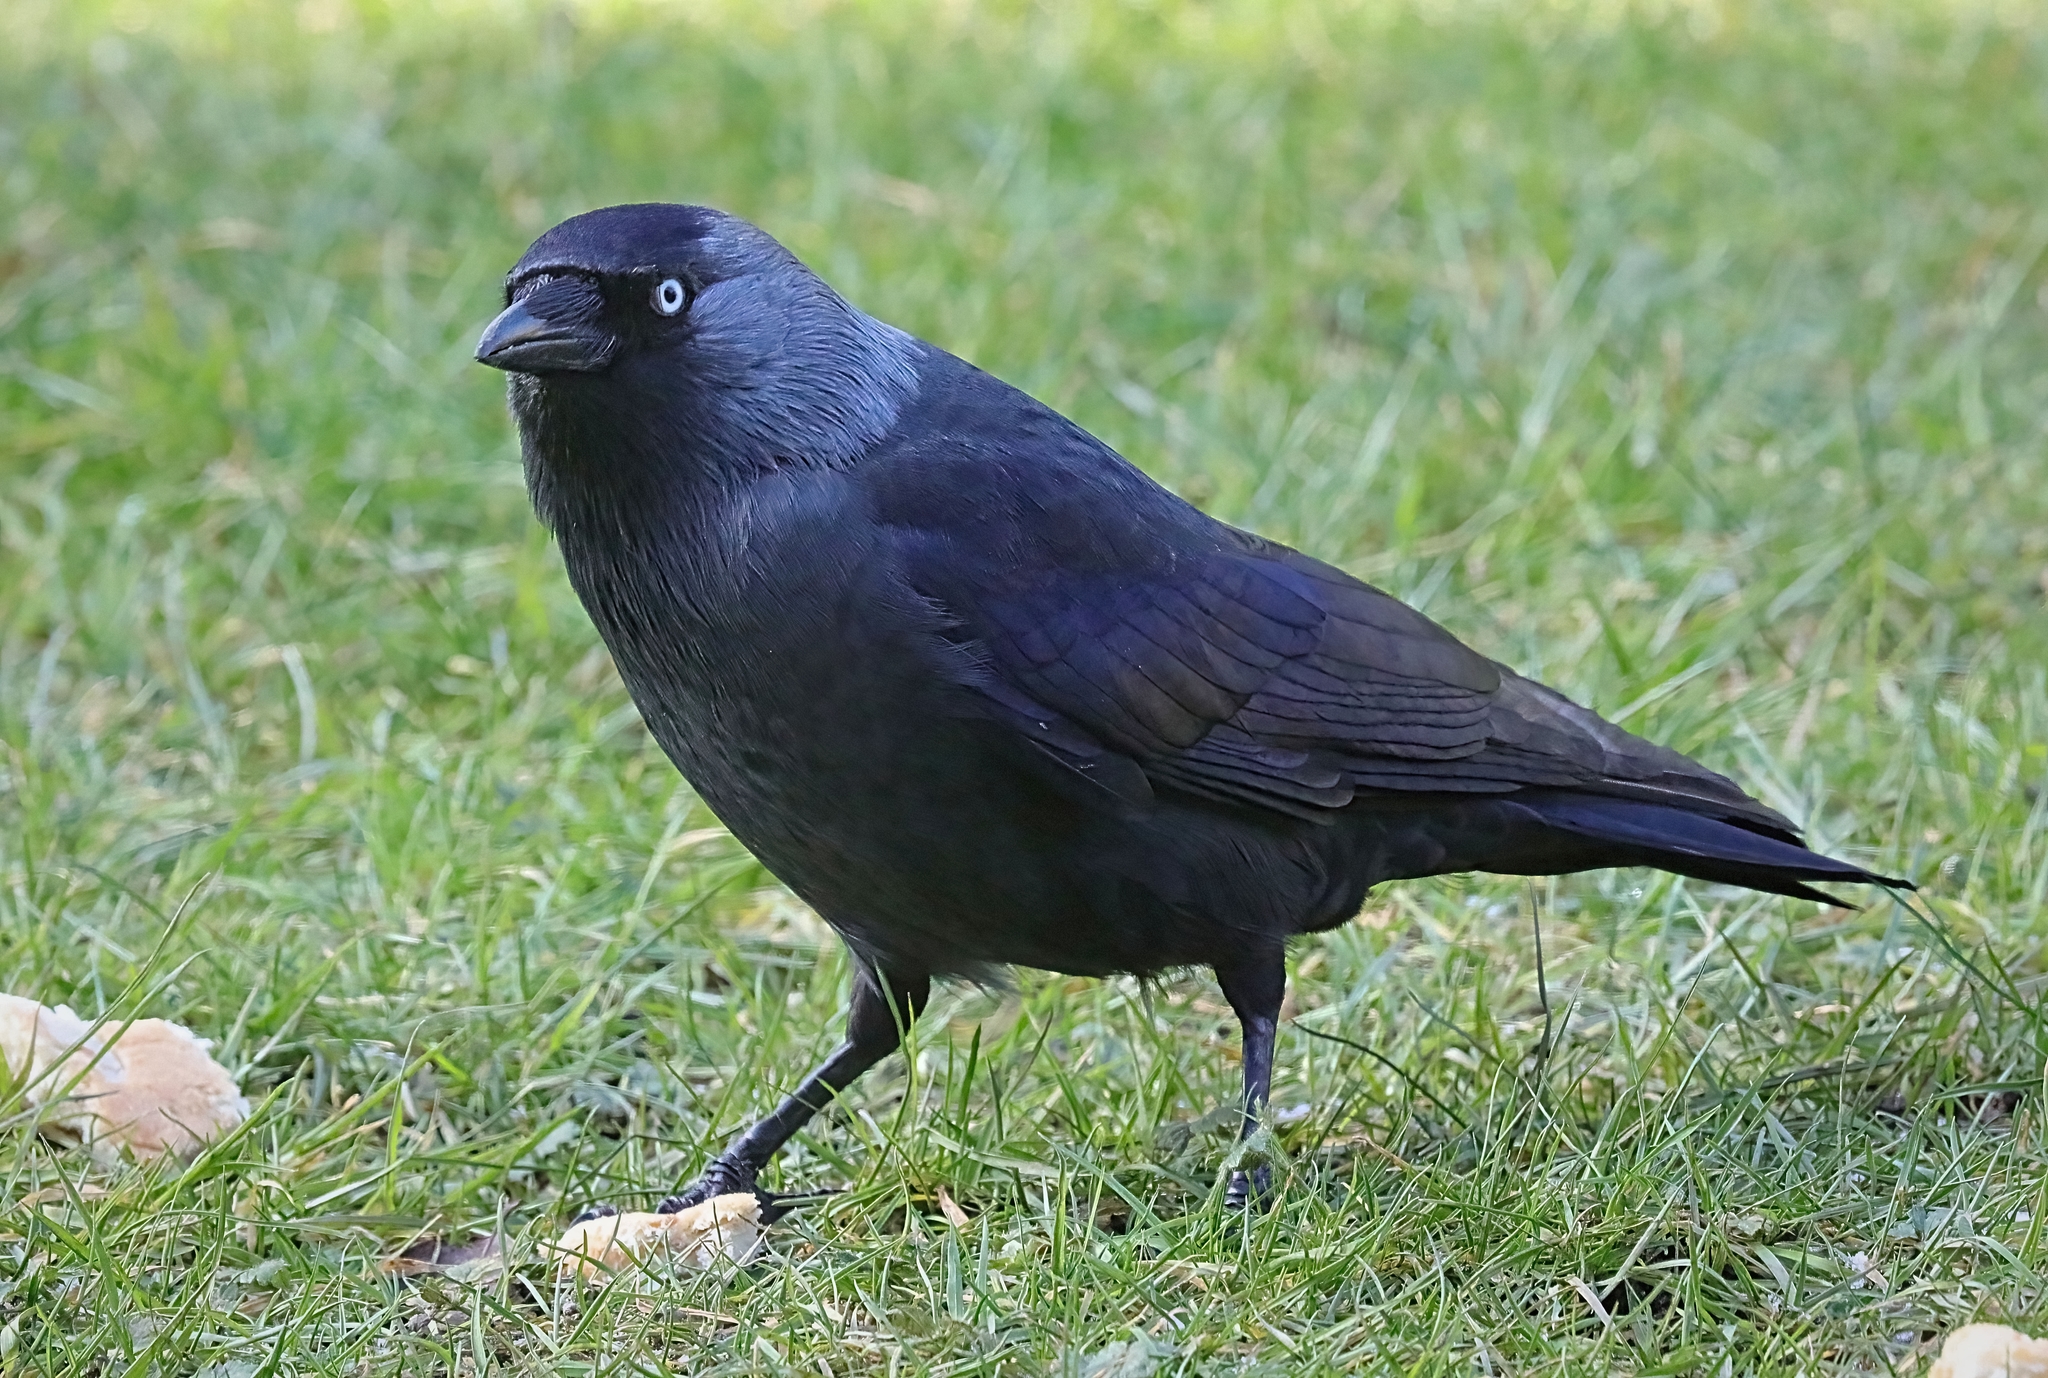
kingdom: Animalia
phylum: Chordata
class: Aves
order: Passeriformes
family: Corvidae
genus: Coloeus
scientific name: Coloeus monedula
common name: Western jackdaw
